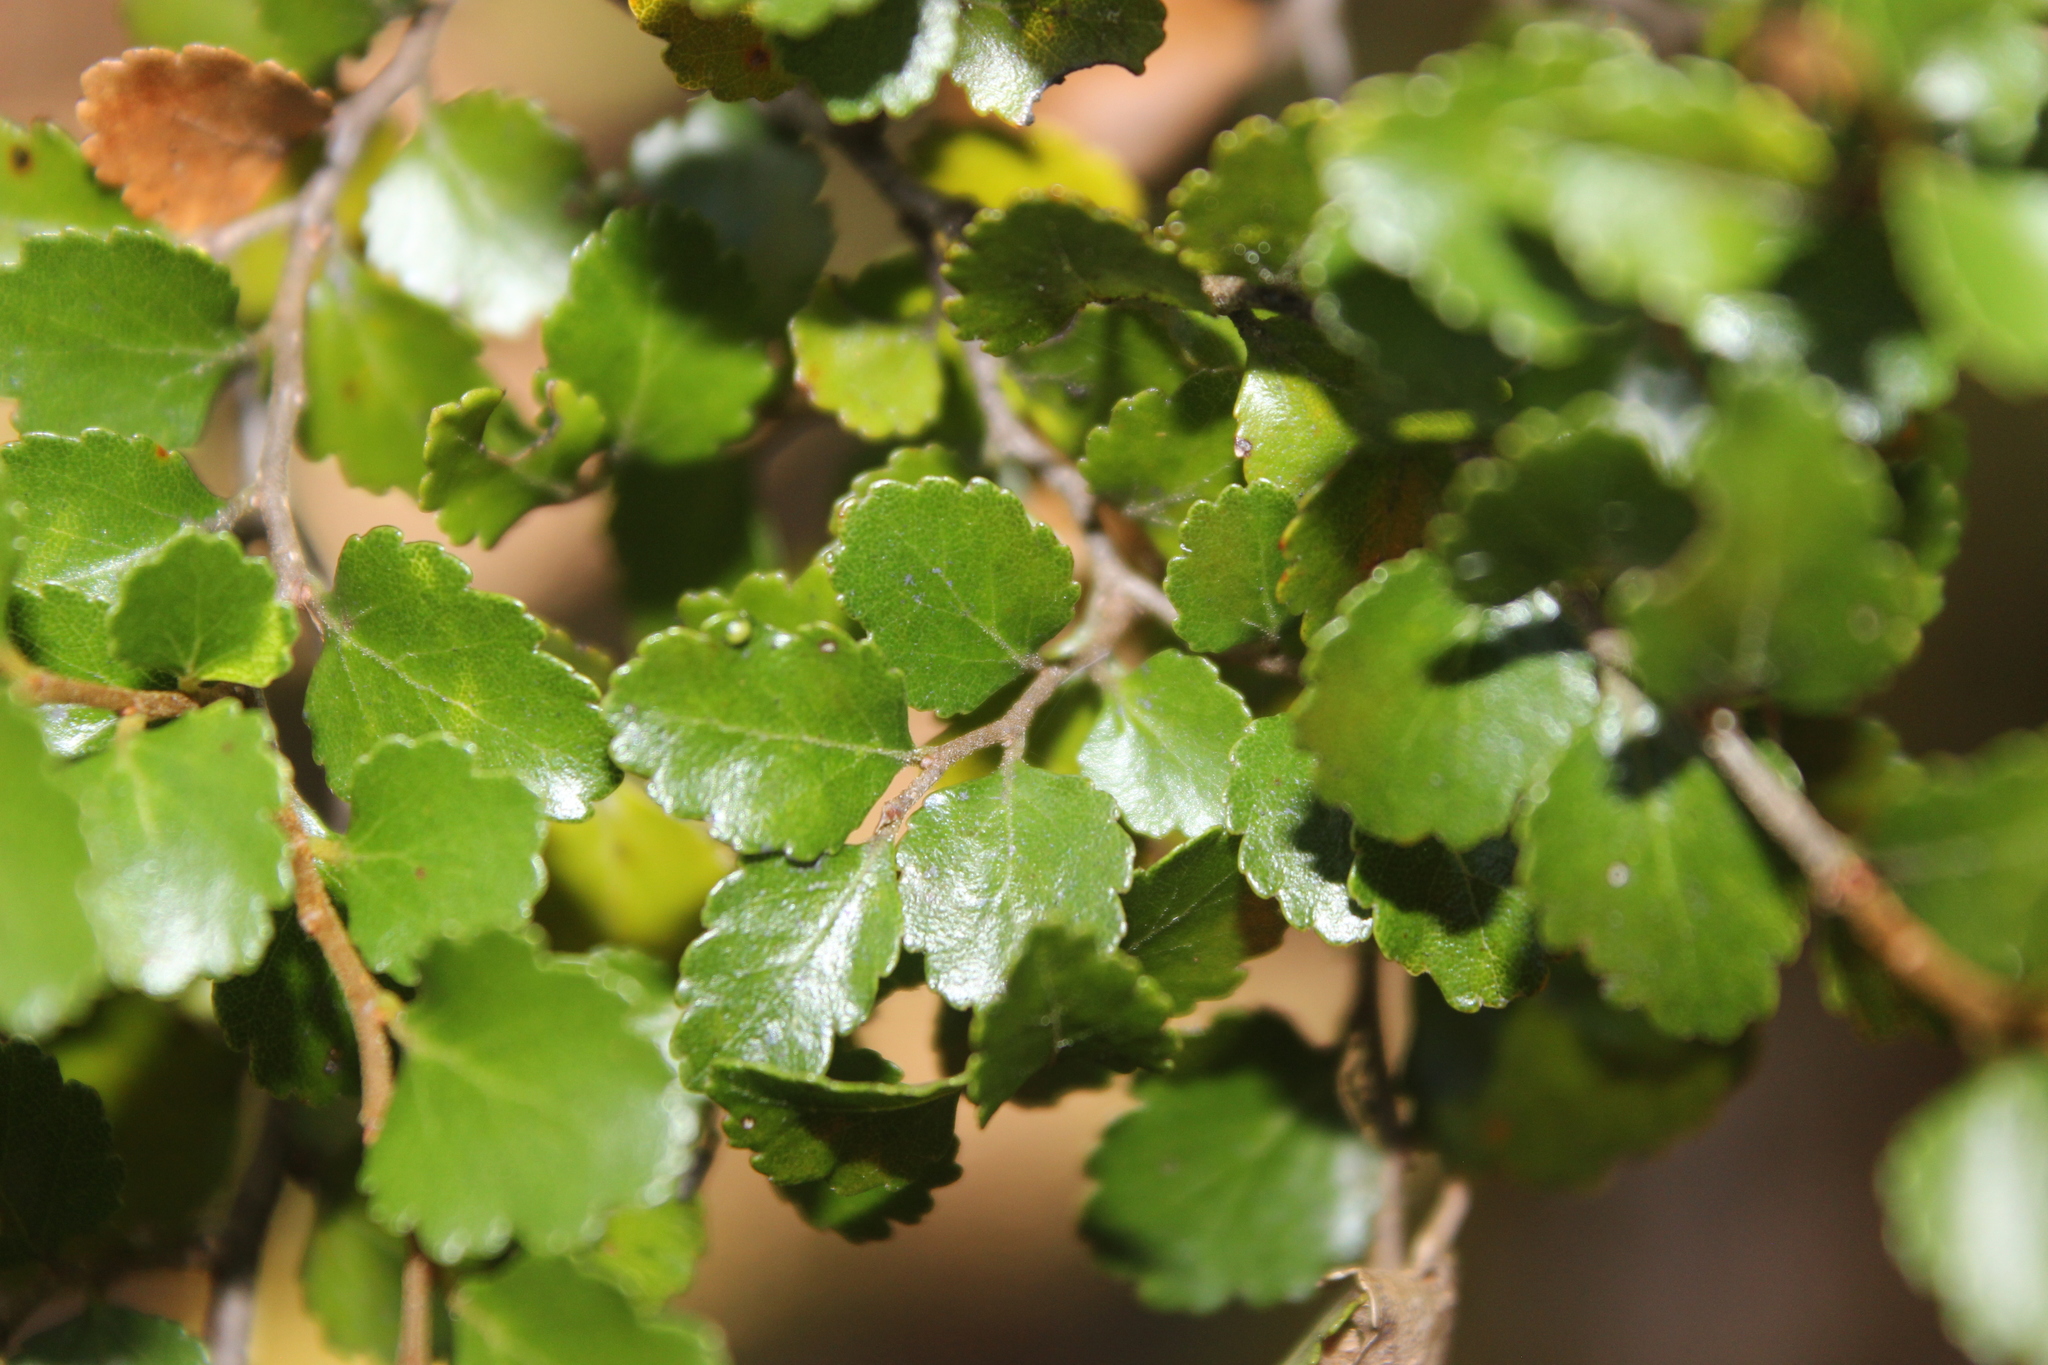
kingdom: Plantae
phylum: Tracheophyta
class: Magnoliopsida
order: Fagales
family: Nothofagaceae
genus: Nothofagus
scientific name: Nothofagus menziesii
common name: Silver beech
